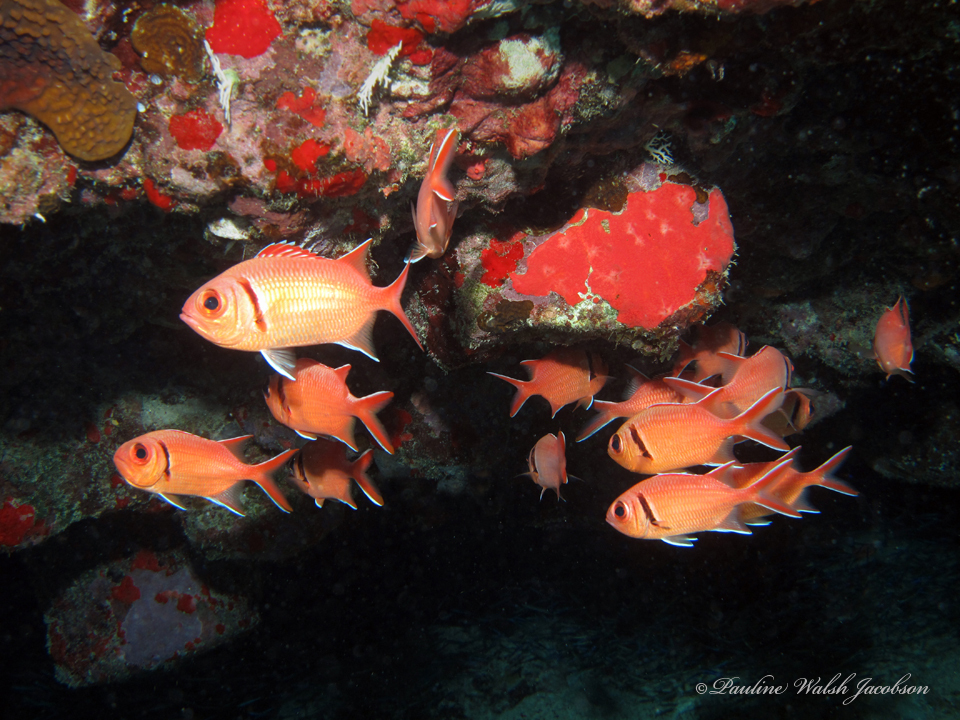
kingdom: Animalia
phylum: Chordata
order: Beryciformes
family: Holocentridae
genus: Myripristis
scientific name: Myripristis jacobus
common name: Blackbar soldierfish
